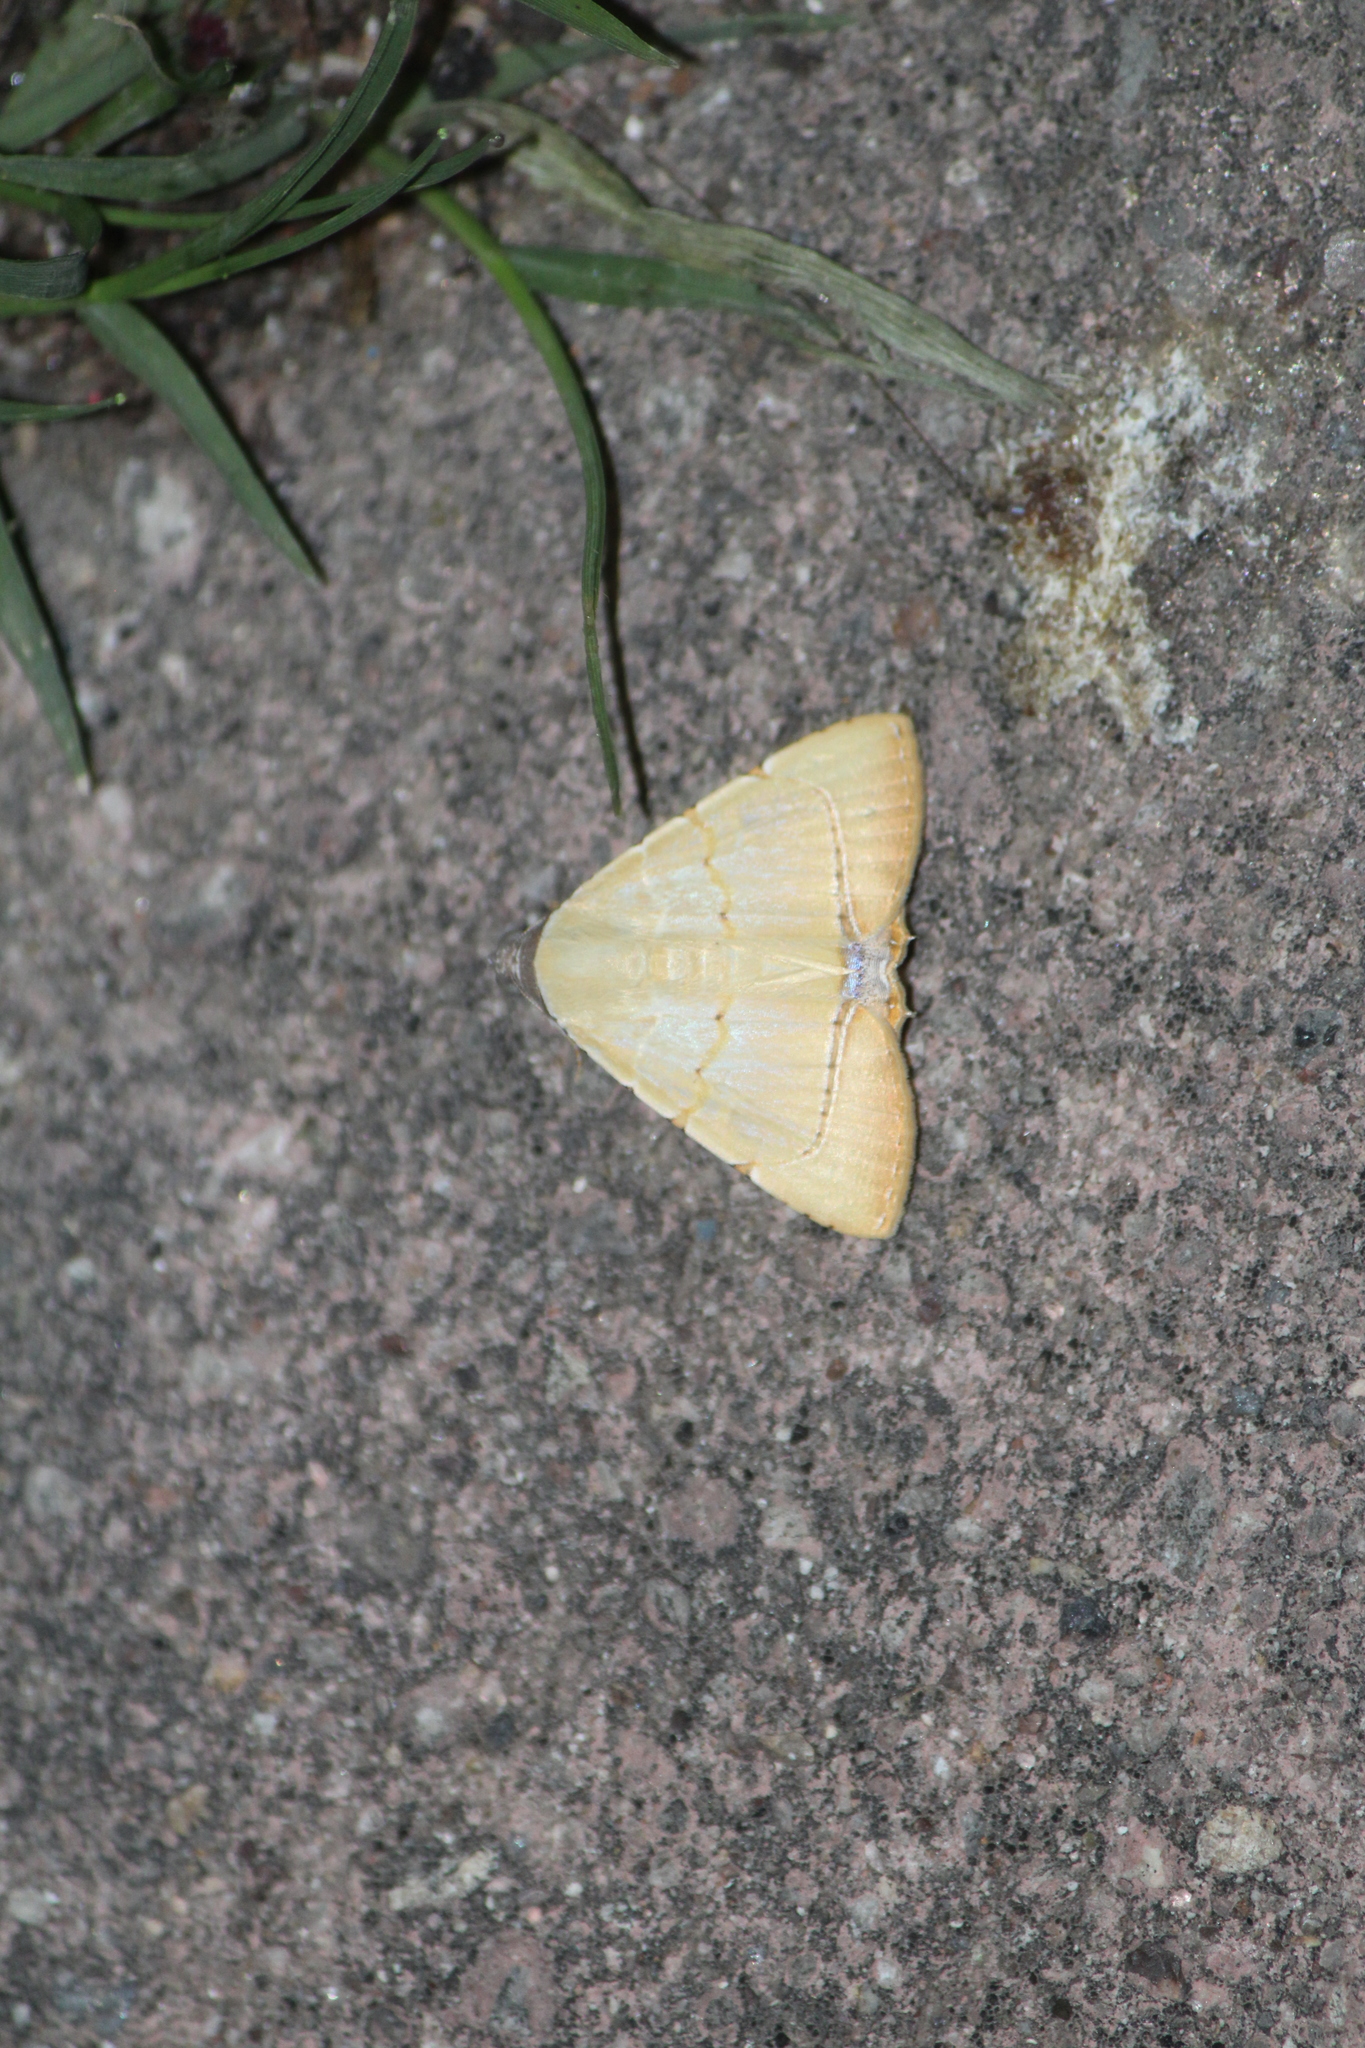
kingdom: Animalia
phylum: Arthropoda
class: Insecta
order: Lepidoptera
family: Erebidae
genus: Eulepidotis
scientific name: Eulepidotis modestula
